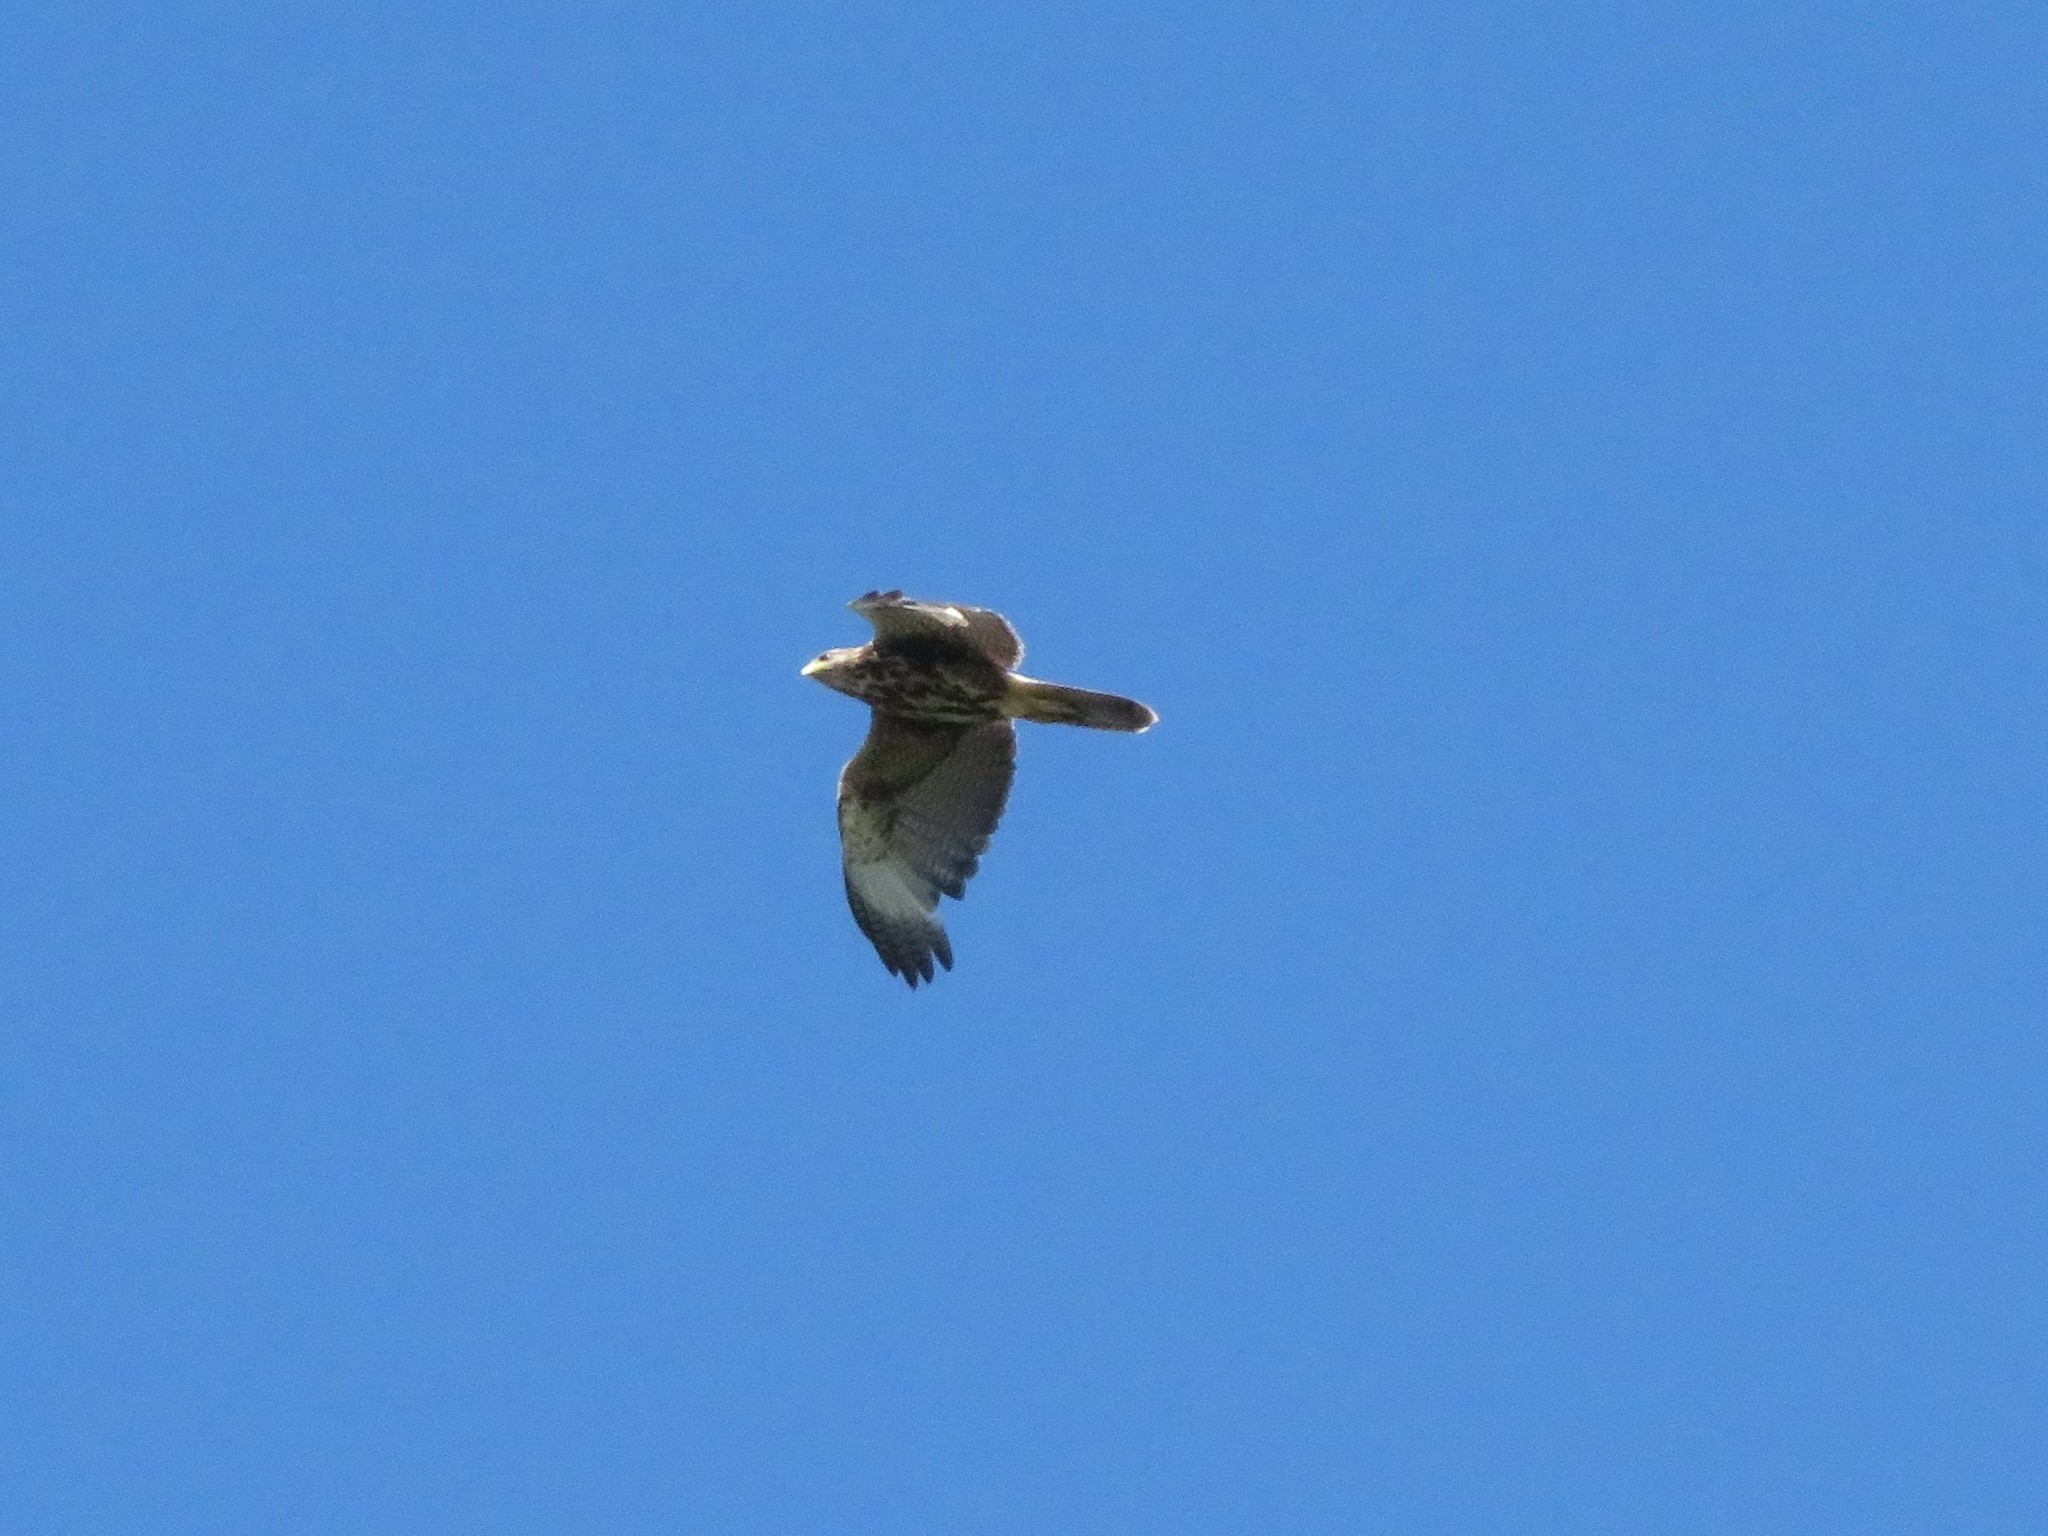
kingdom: Animalia
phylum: Chordata
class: Aves
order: Accipitriformes
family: Accipitridae
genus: Parabuteo
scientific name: Parabuteo unicinctus
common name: Harris's hawk
